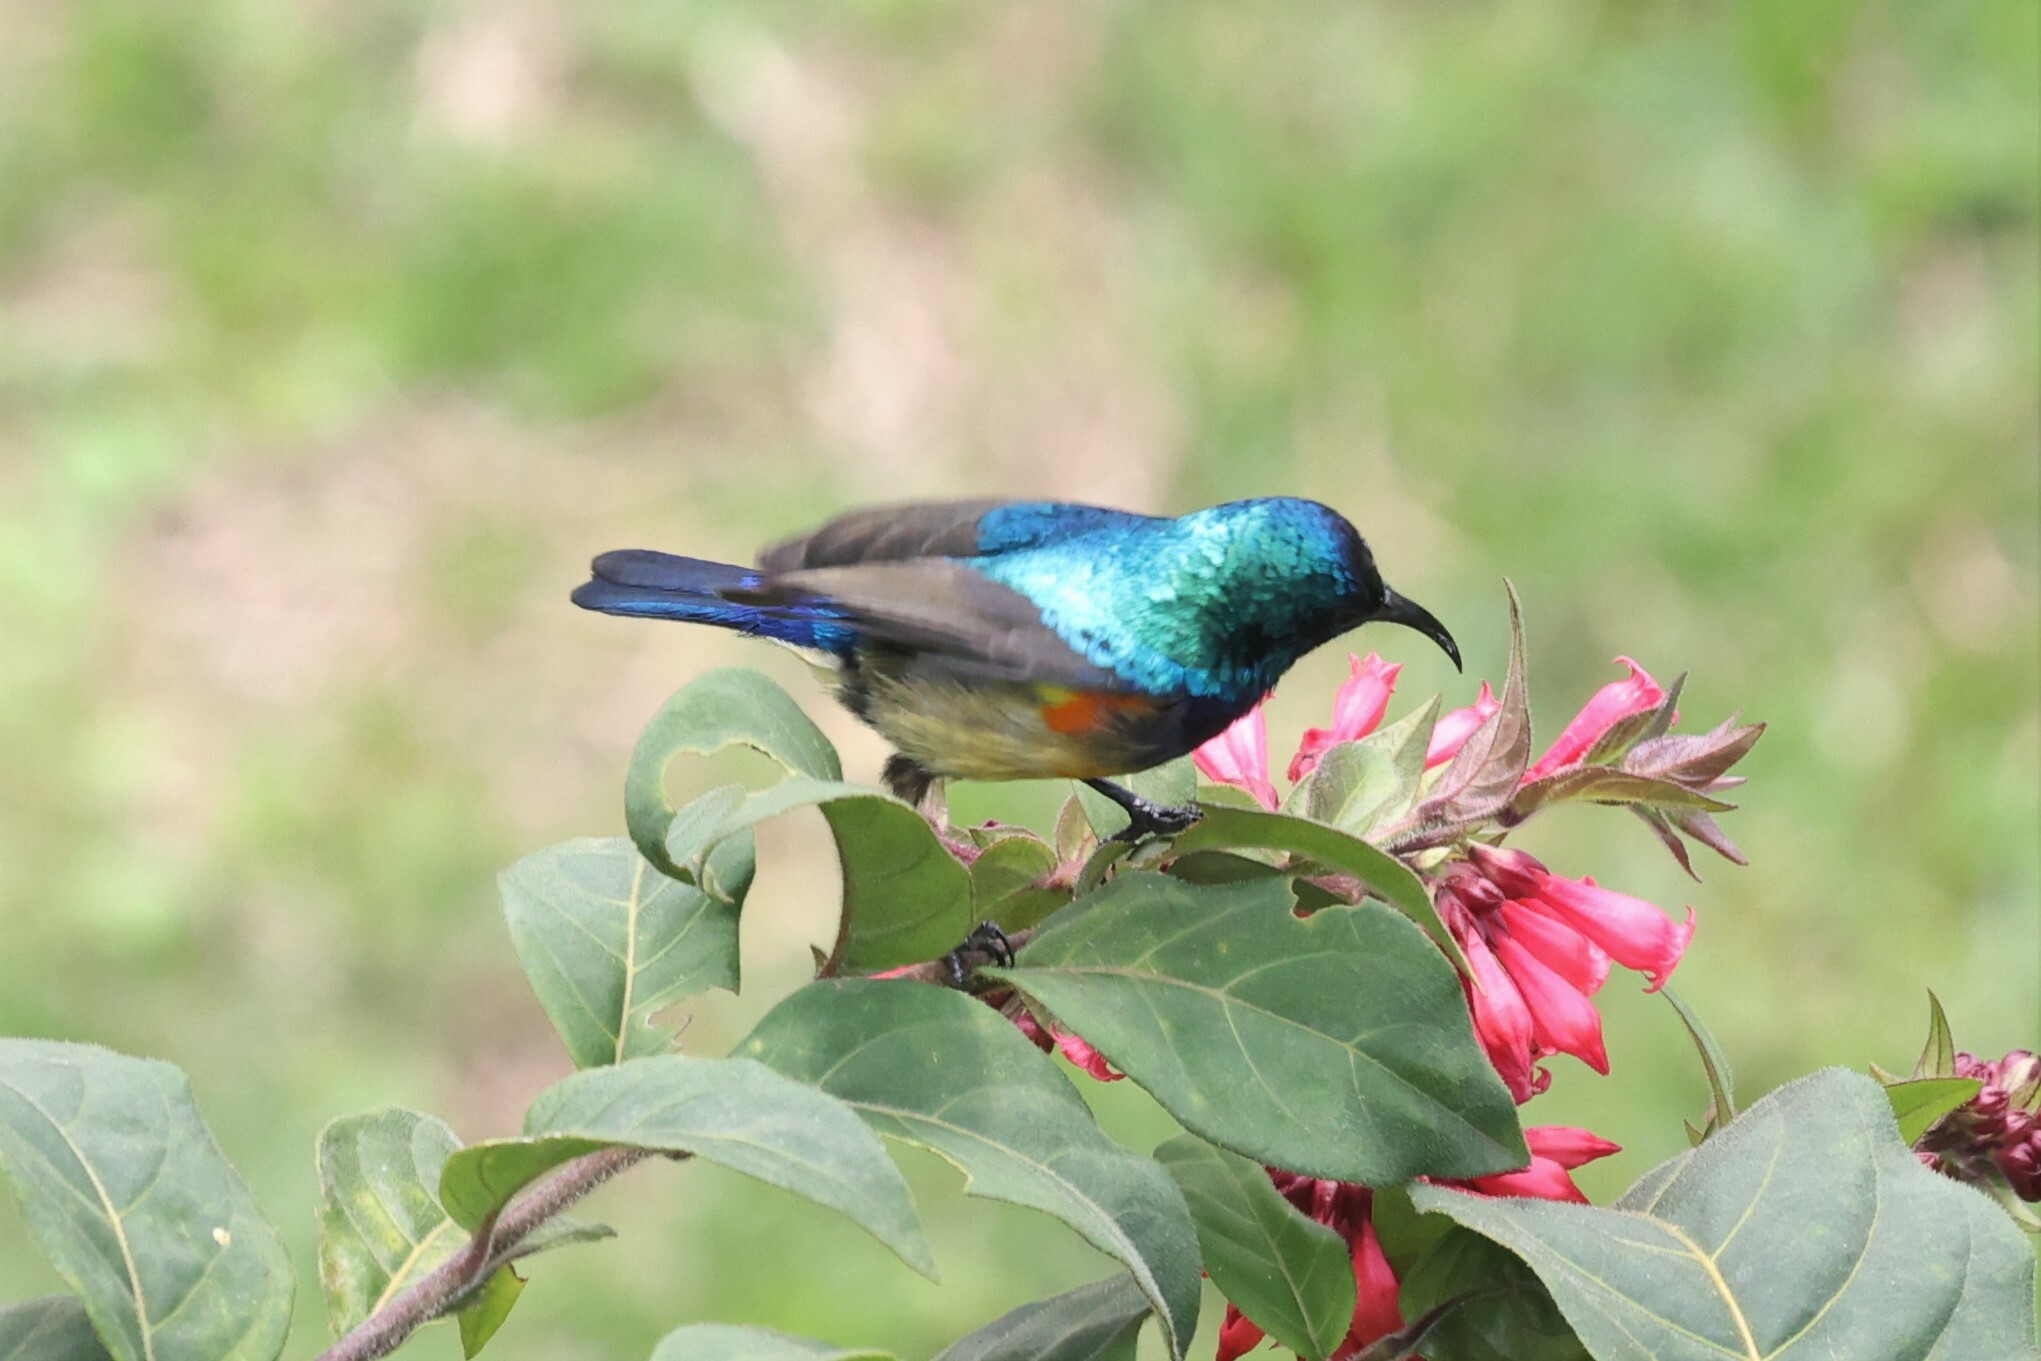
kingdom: Animalia
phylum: Chordata
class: Aves
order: Passeriformes
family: Nectariniidae
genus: Cinnyris
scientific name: Cinnyris venustus
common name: Variable sunbird
